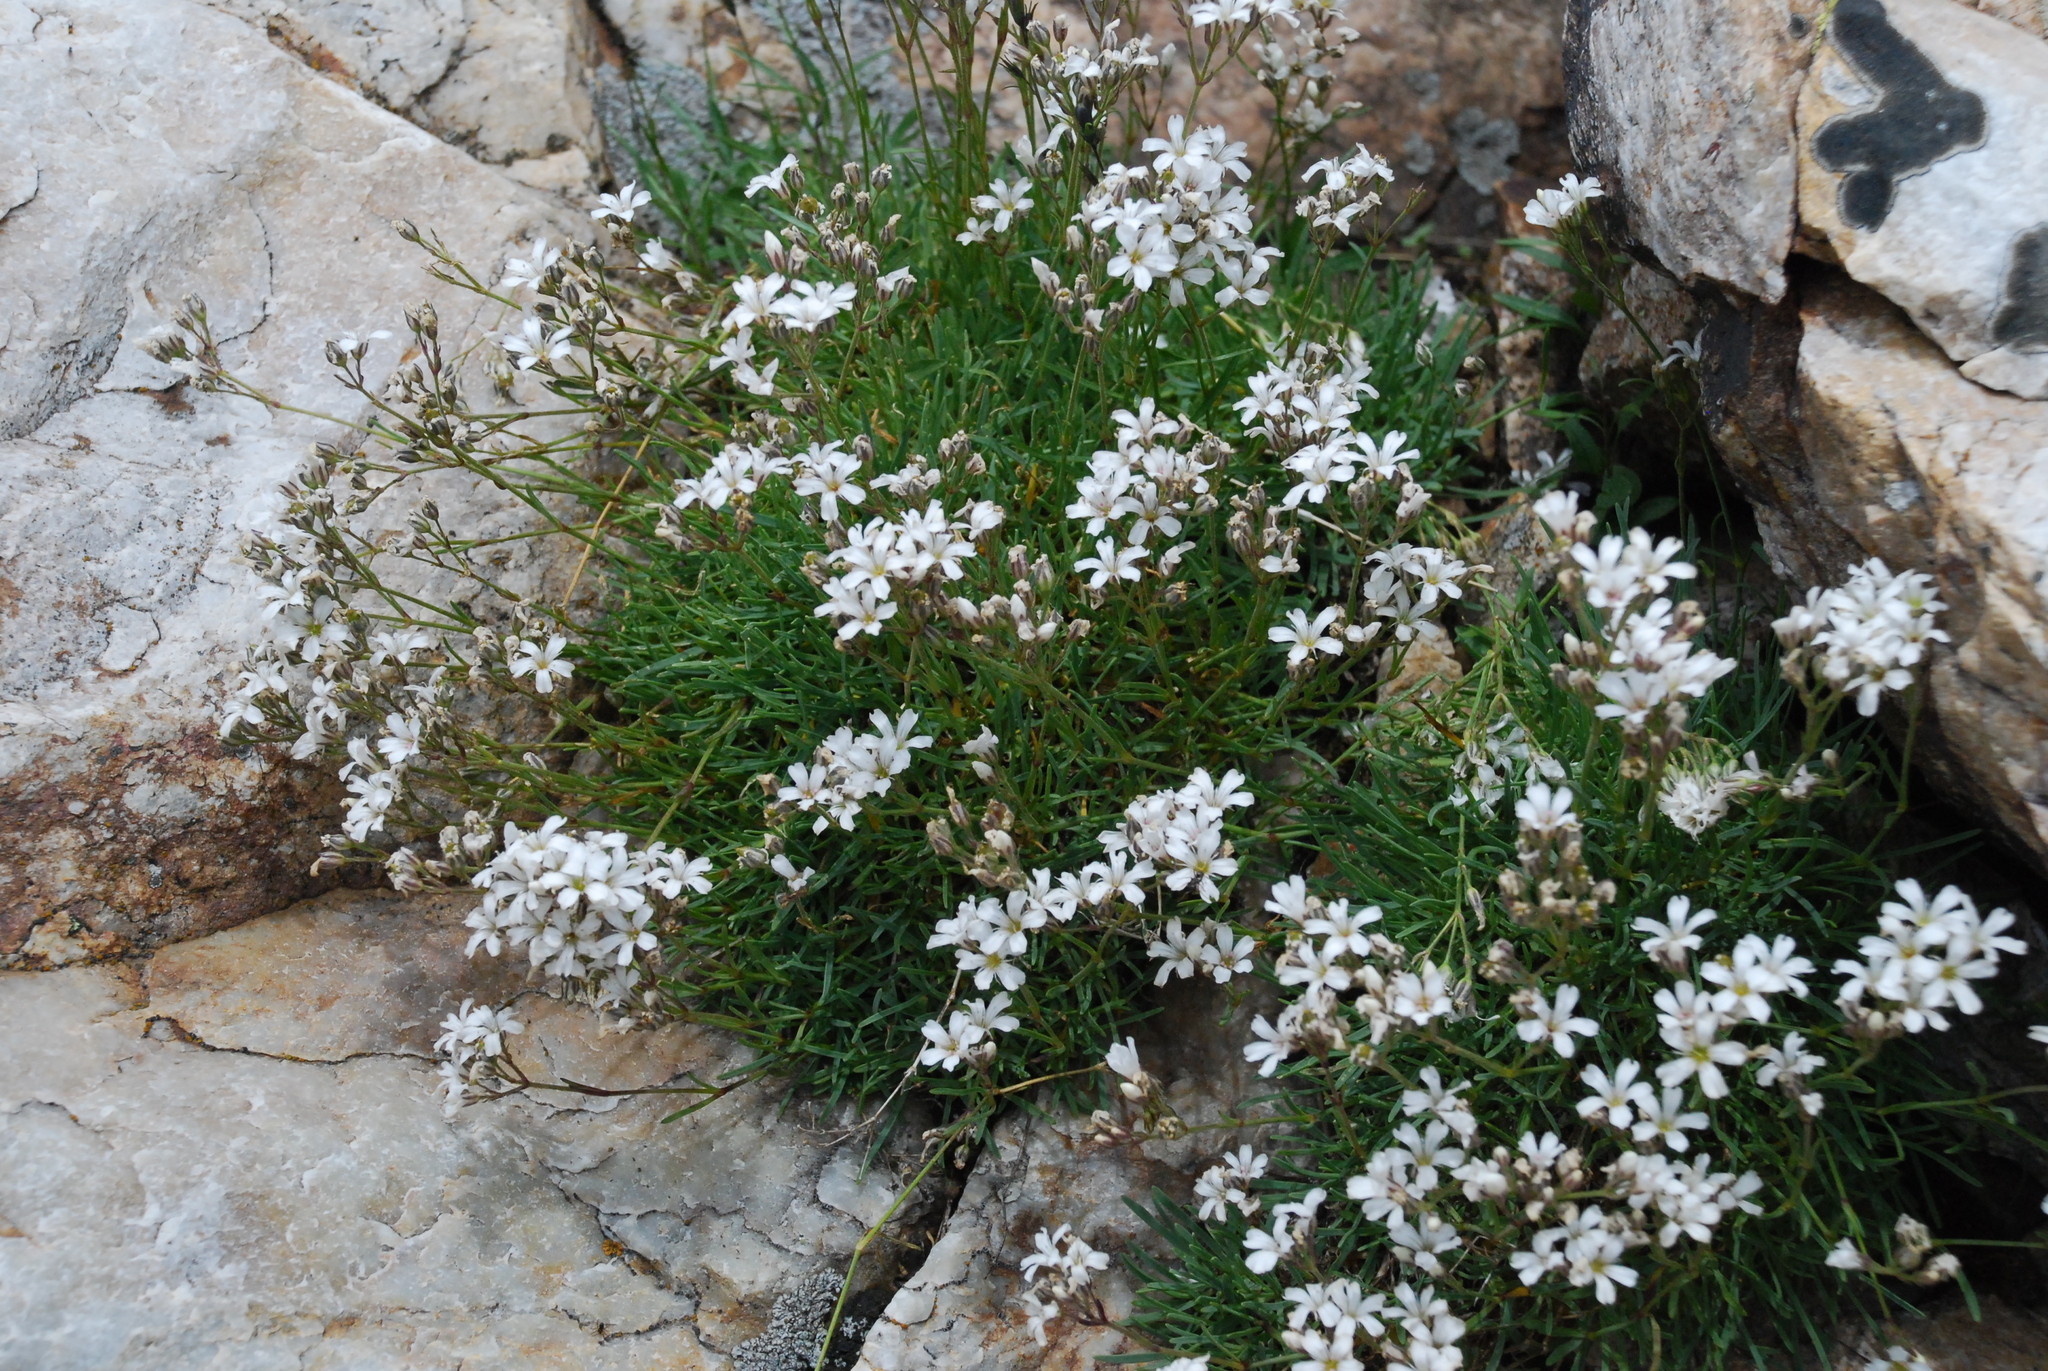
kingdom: Plantae
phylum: Tracheophyta
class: Magnoliopsida
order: Caryophyllales
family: Caryophyllaceae
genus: Gypsophila
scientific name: Gypsophila uralensis
